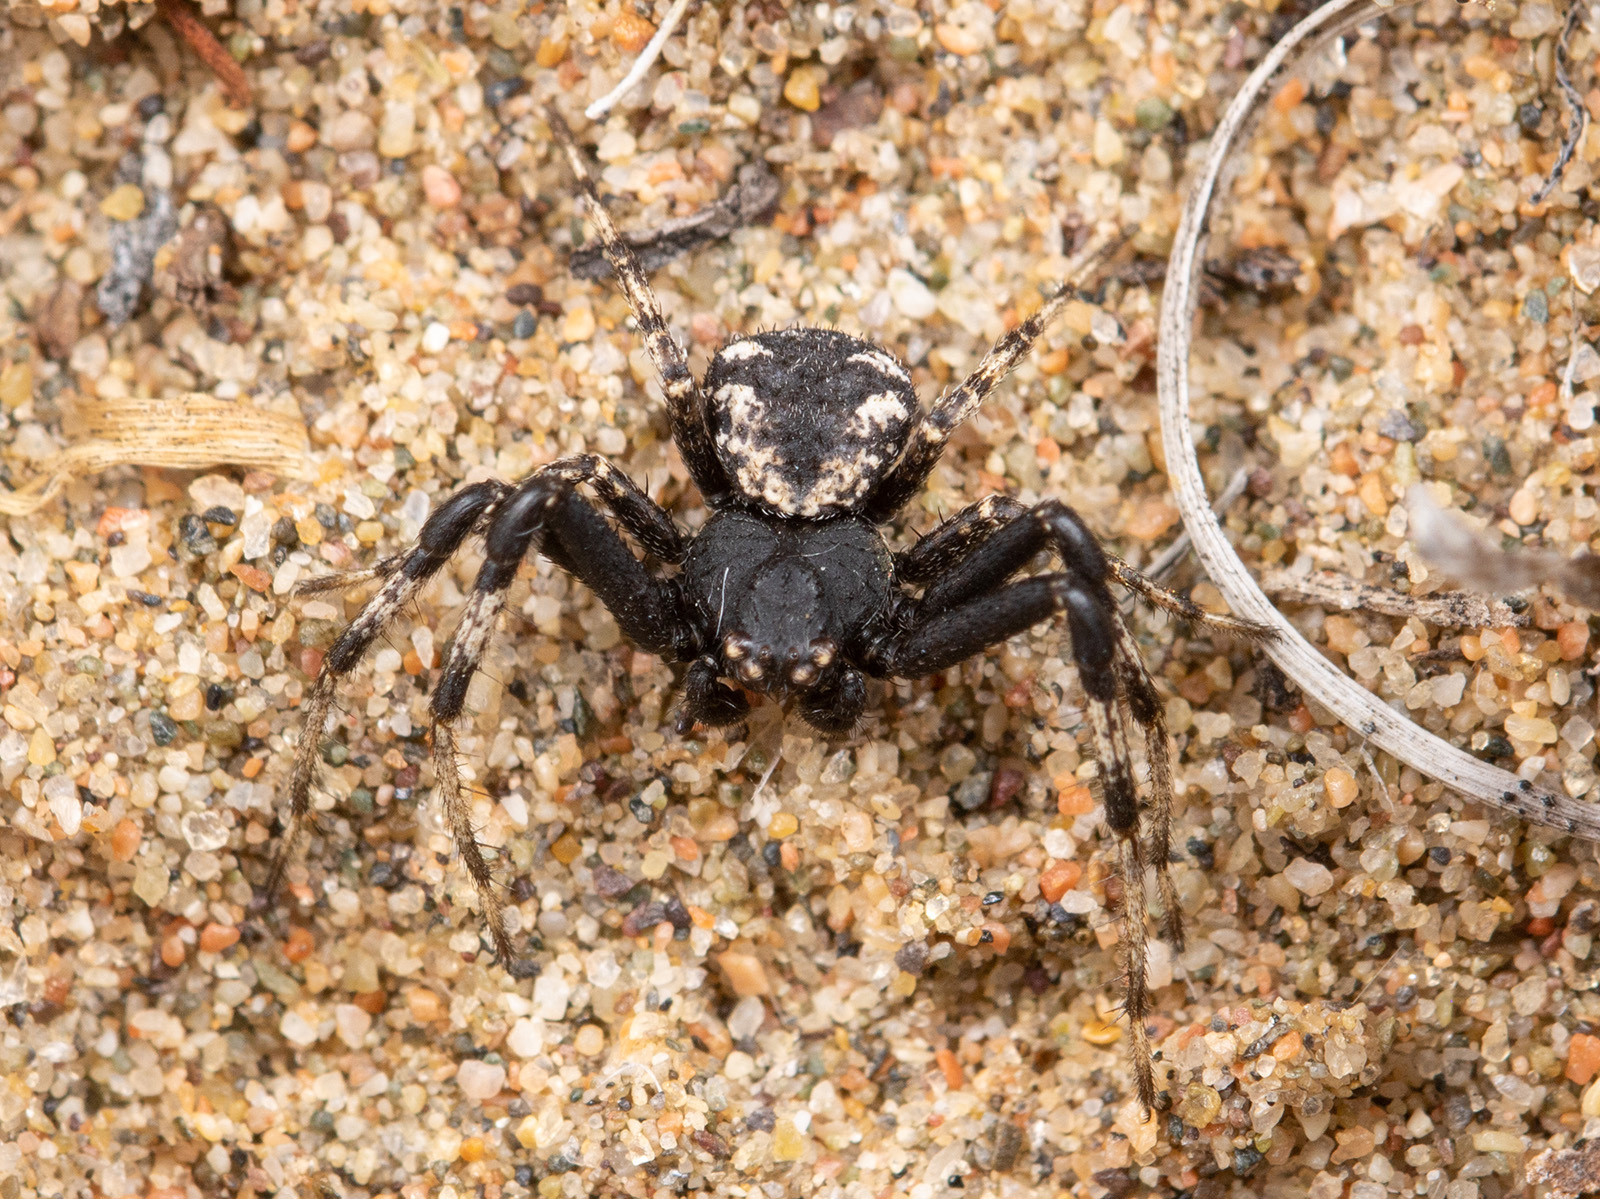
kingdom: Animalia
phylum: Arthropoda
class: Arachnida
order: Araneae
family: Thomisidae
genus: Ozyptila
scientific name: Ozyptila lugubris
